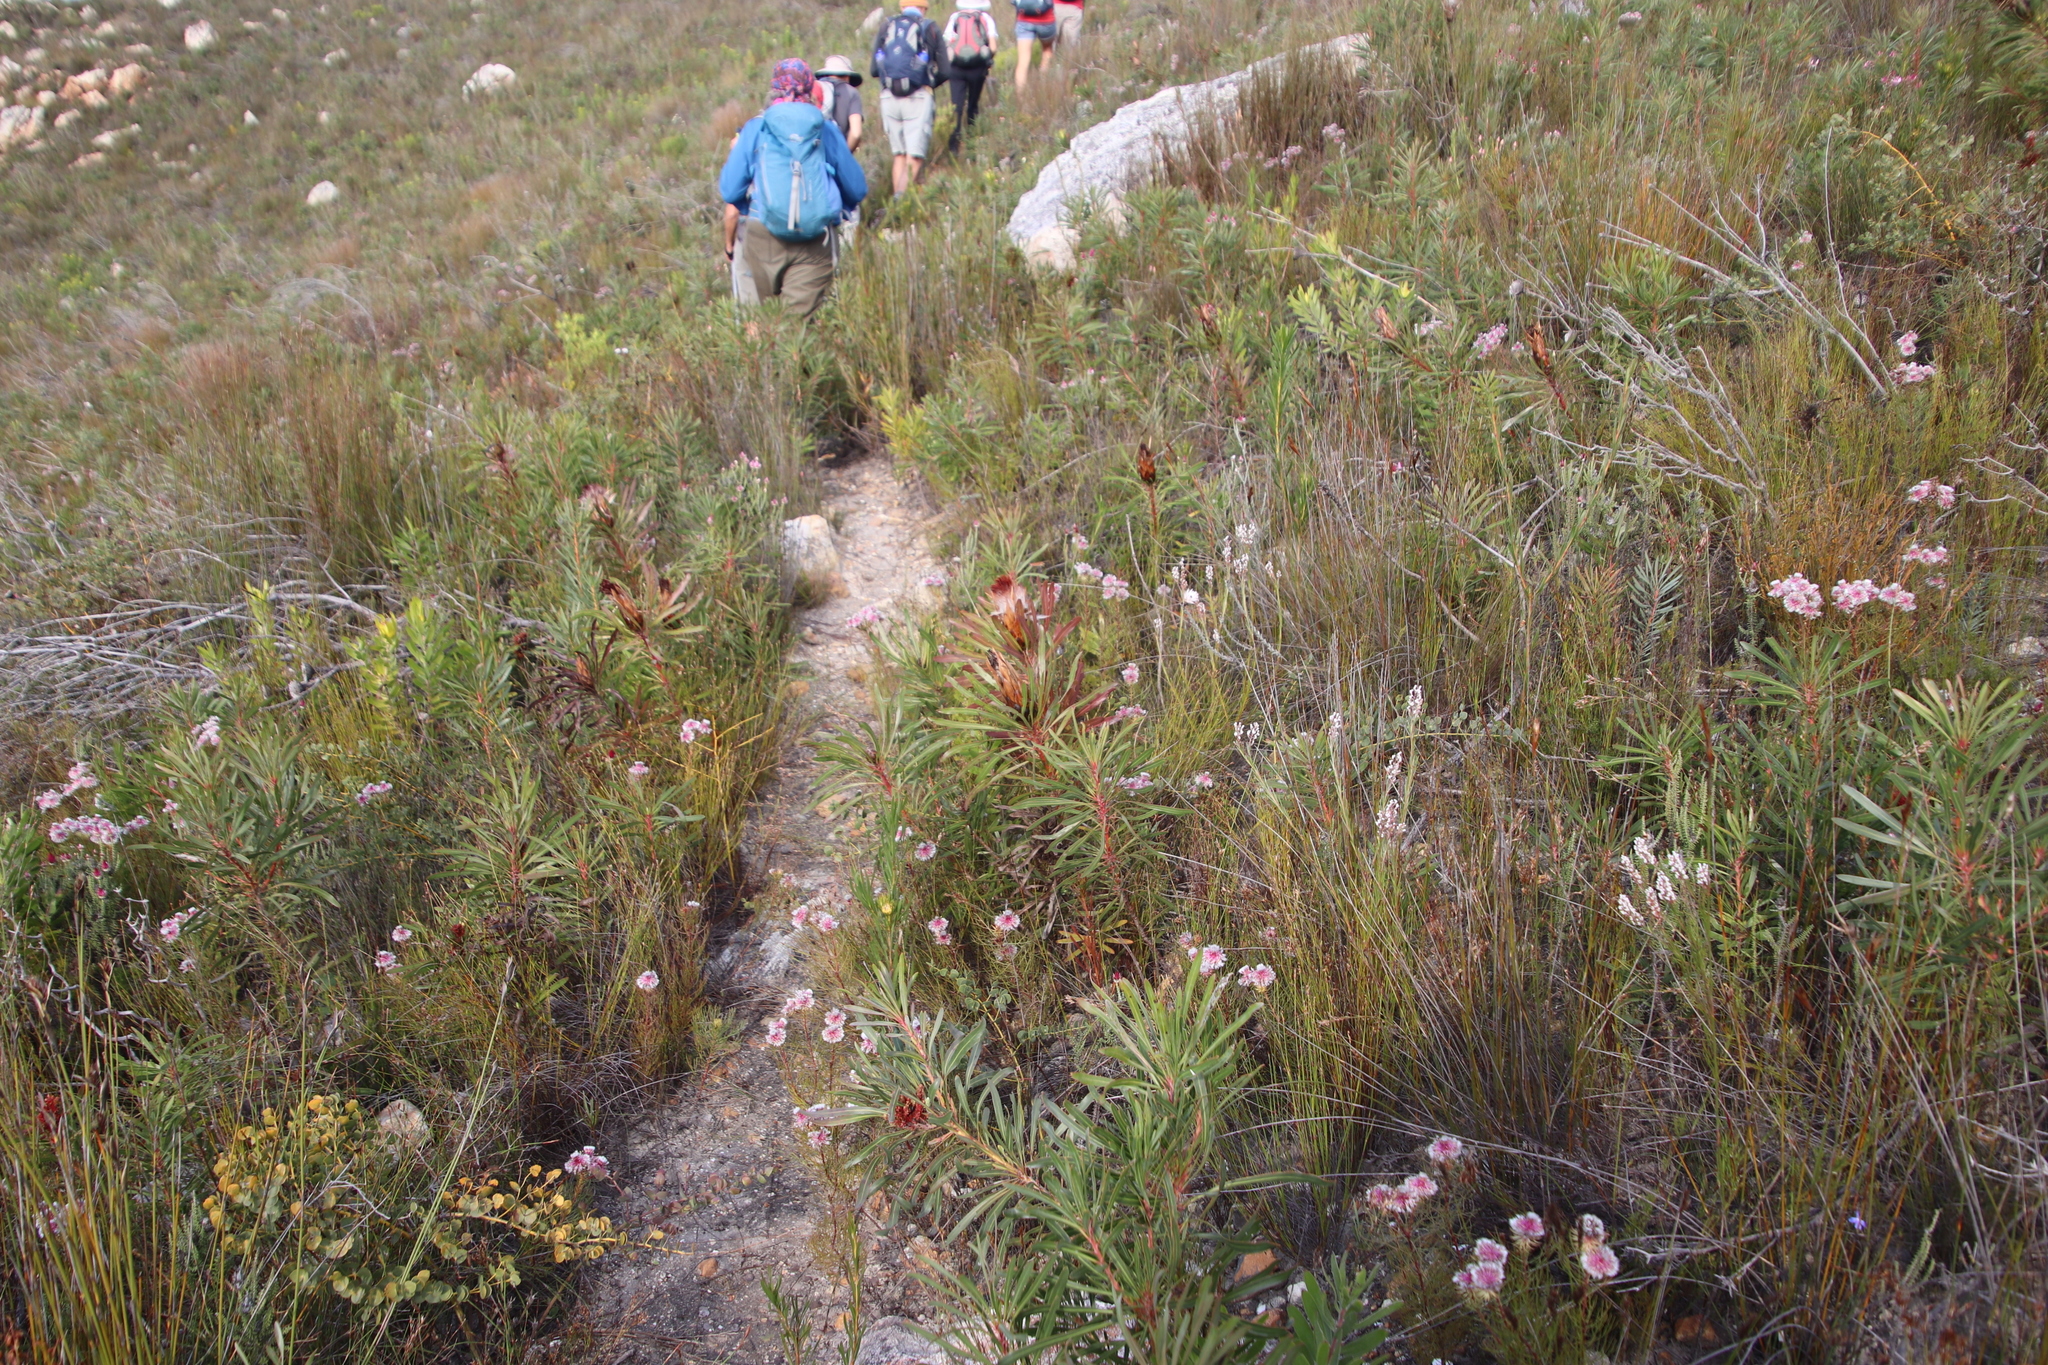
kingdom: Plantae
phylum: Tracheophyta
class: Magnoliopsida
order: Proteales
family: Proteaceae
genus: Protea
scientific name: Protea longifolia
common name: Long-leaf sugarbush
